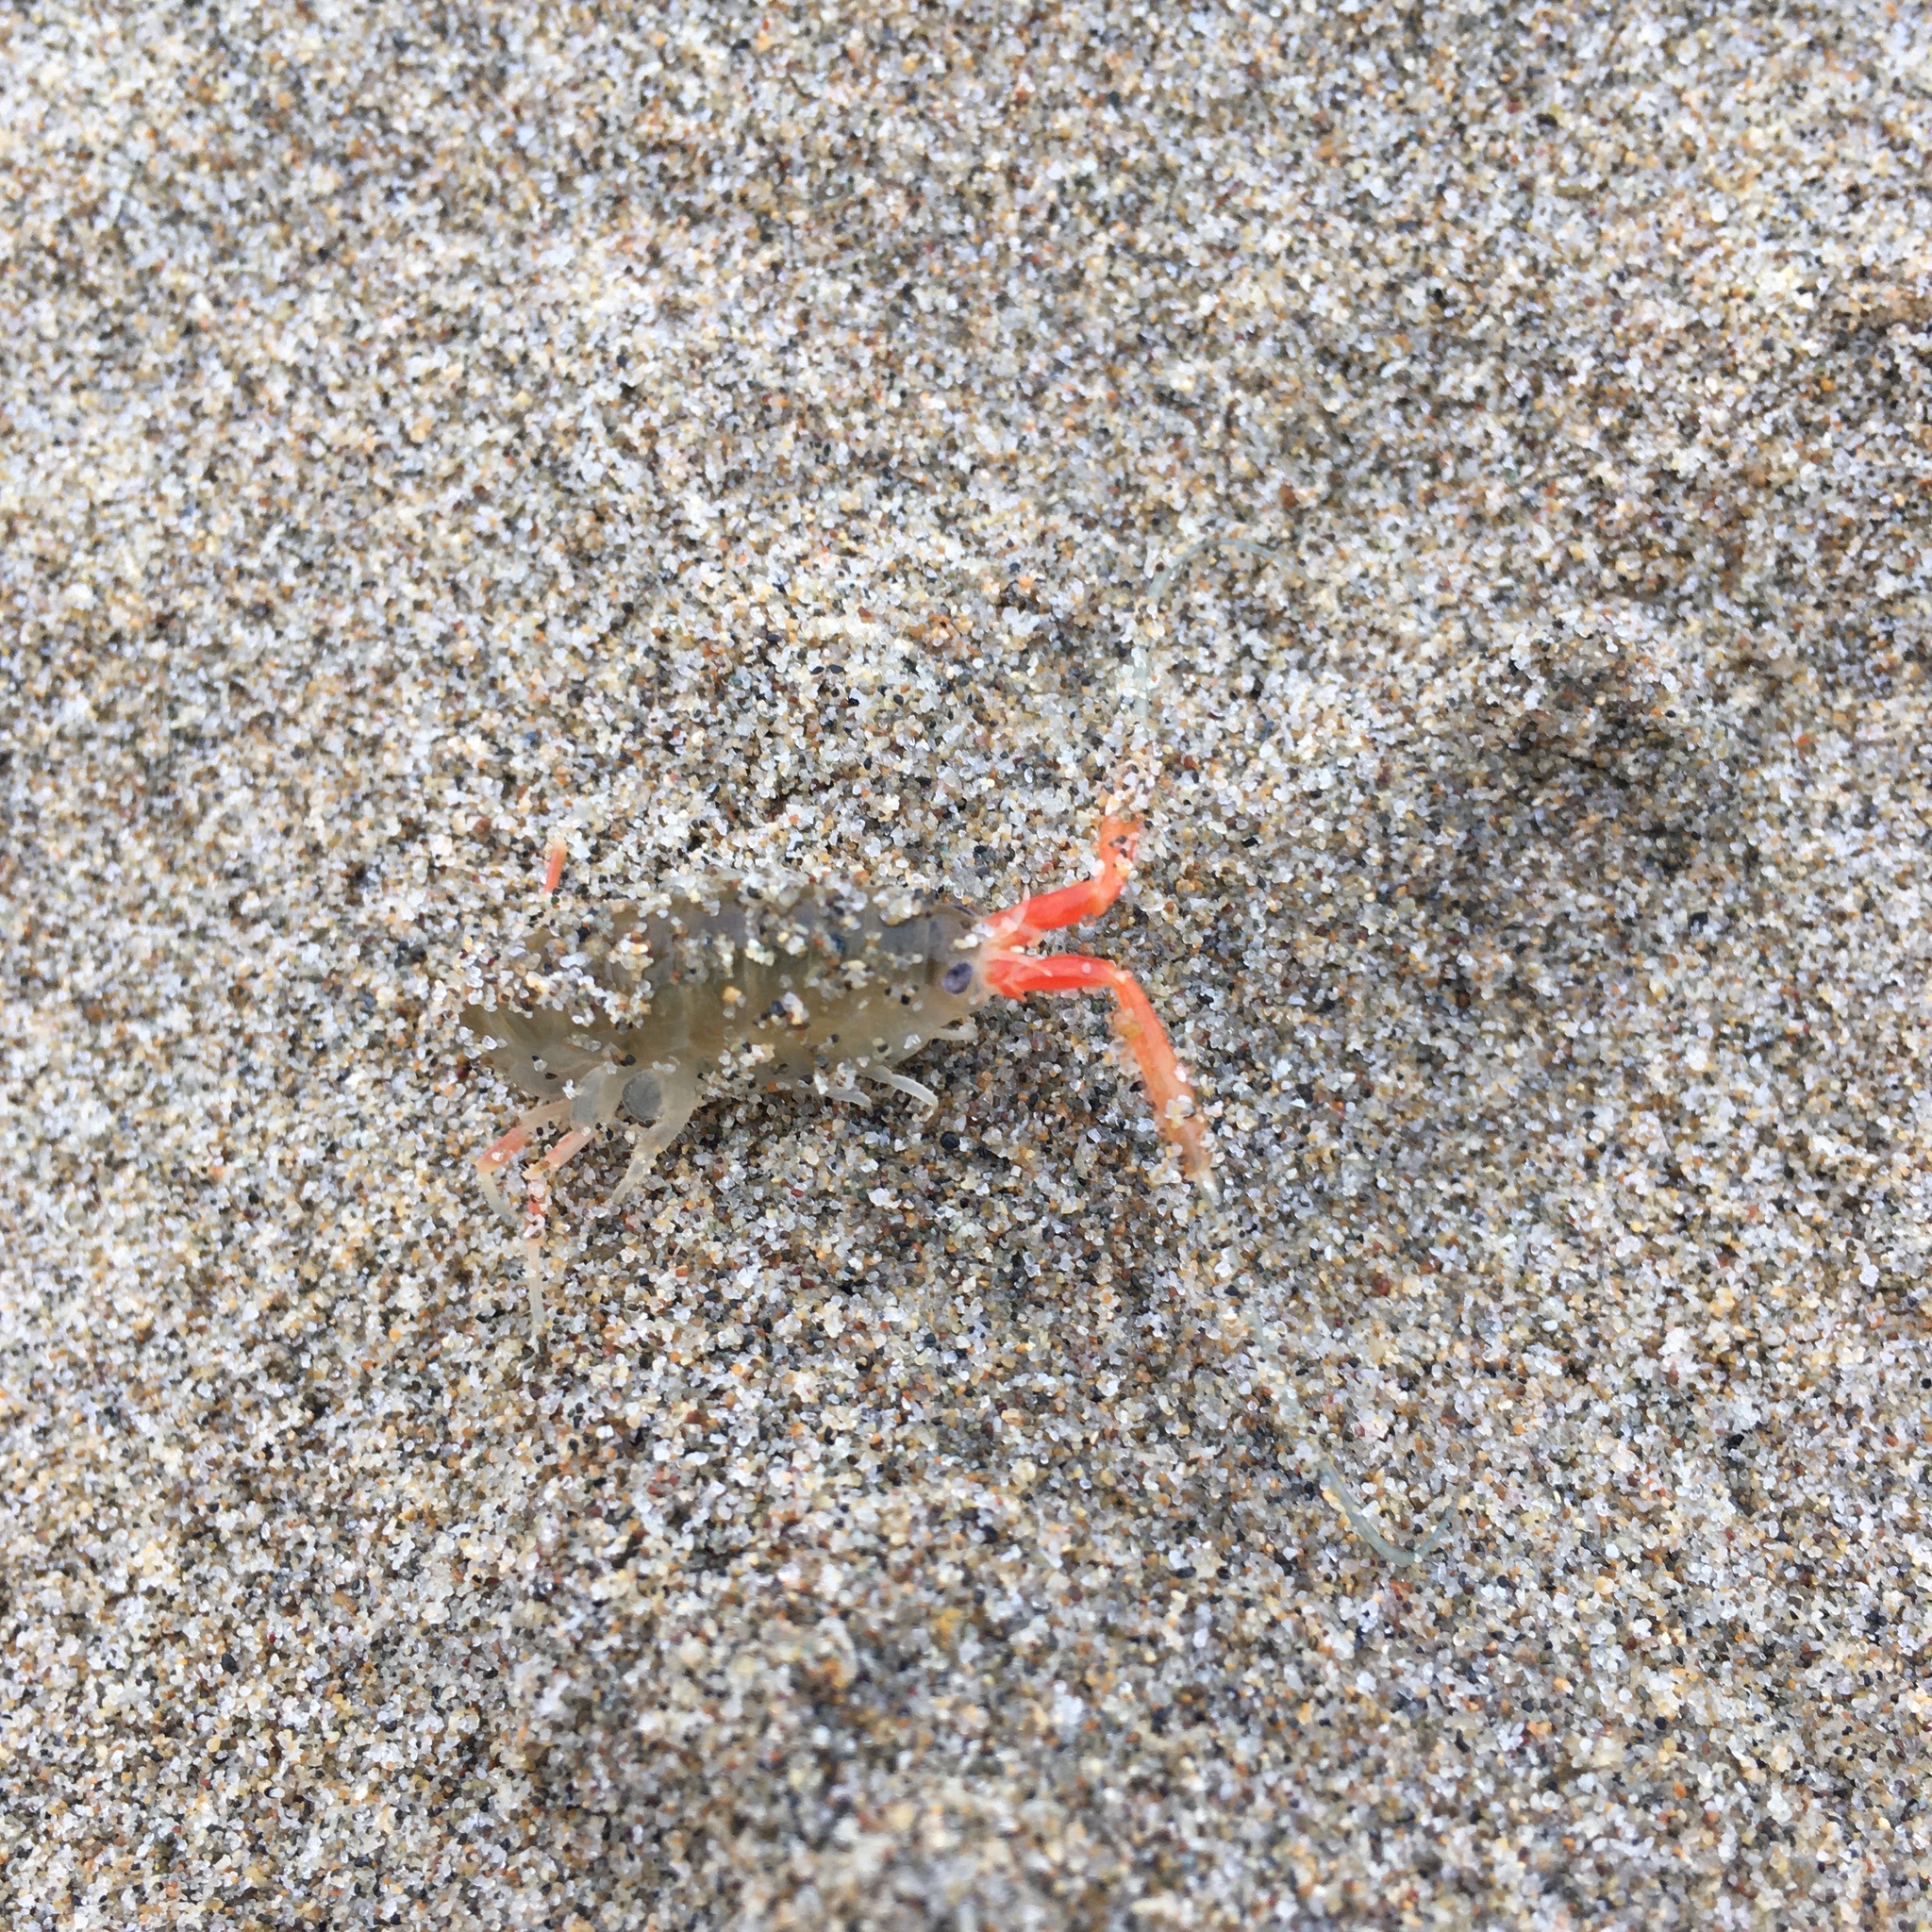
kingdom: Animalia
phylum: Arthropoda
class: Malacostraca
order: Amphipoda
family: Talitridae
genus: Megalorchestia
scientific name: Megalorchestia californiana
